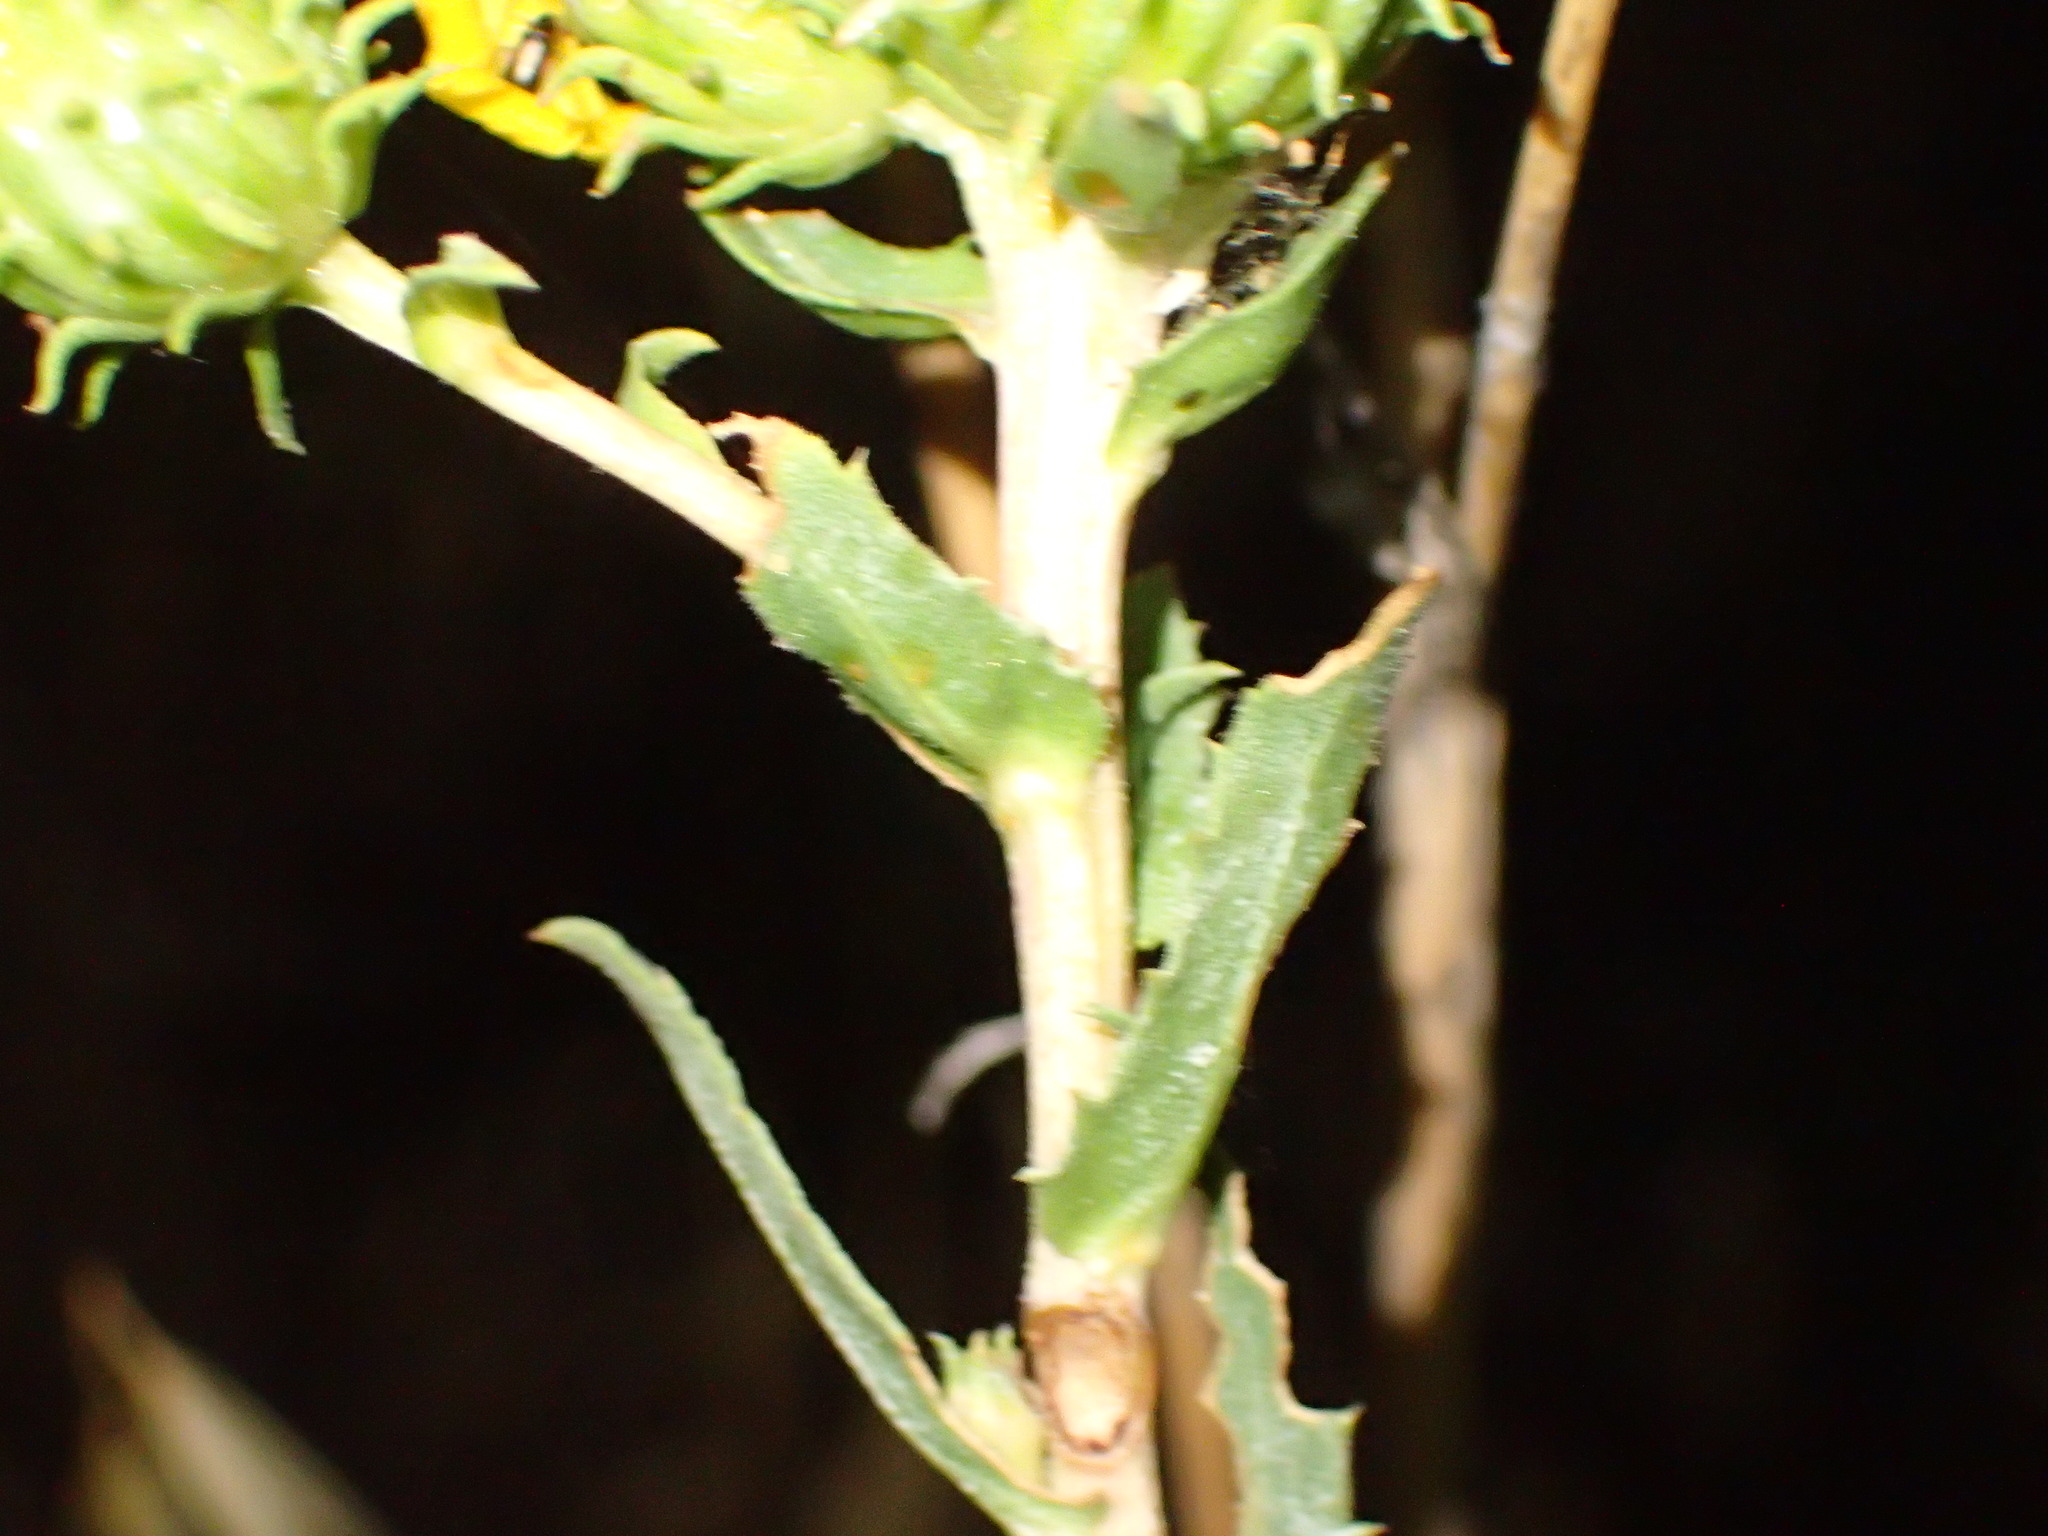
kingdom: Plantae
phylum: Tracheophyta
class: Magnoliopsida
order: Asterales
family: Asteraceae
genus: Grindelia
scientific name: Grindelia hirsutula
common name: Hairy gumweed
